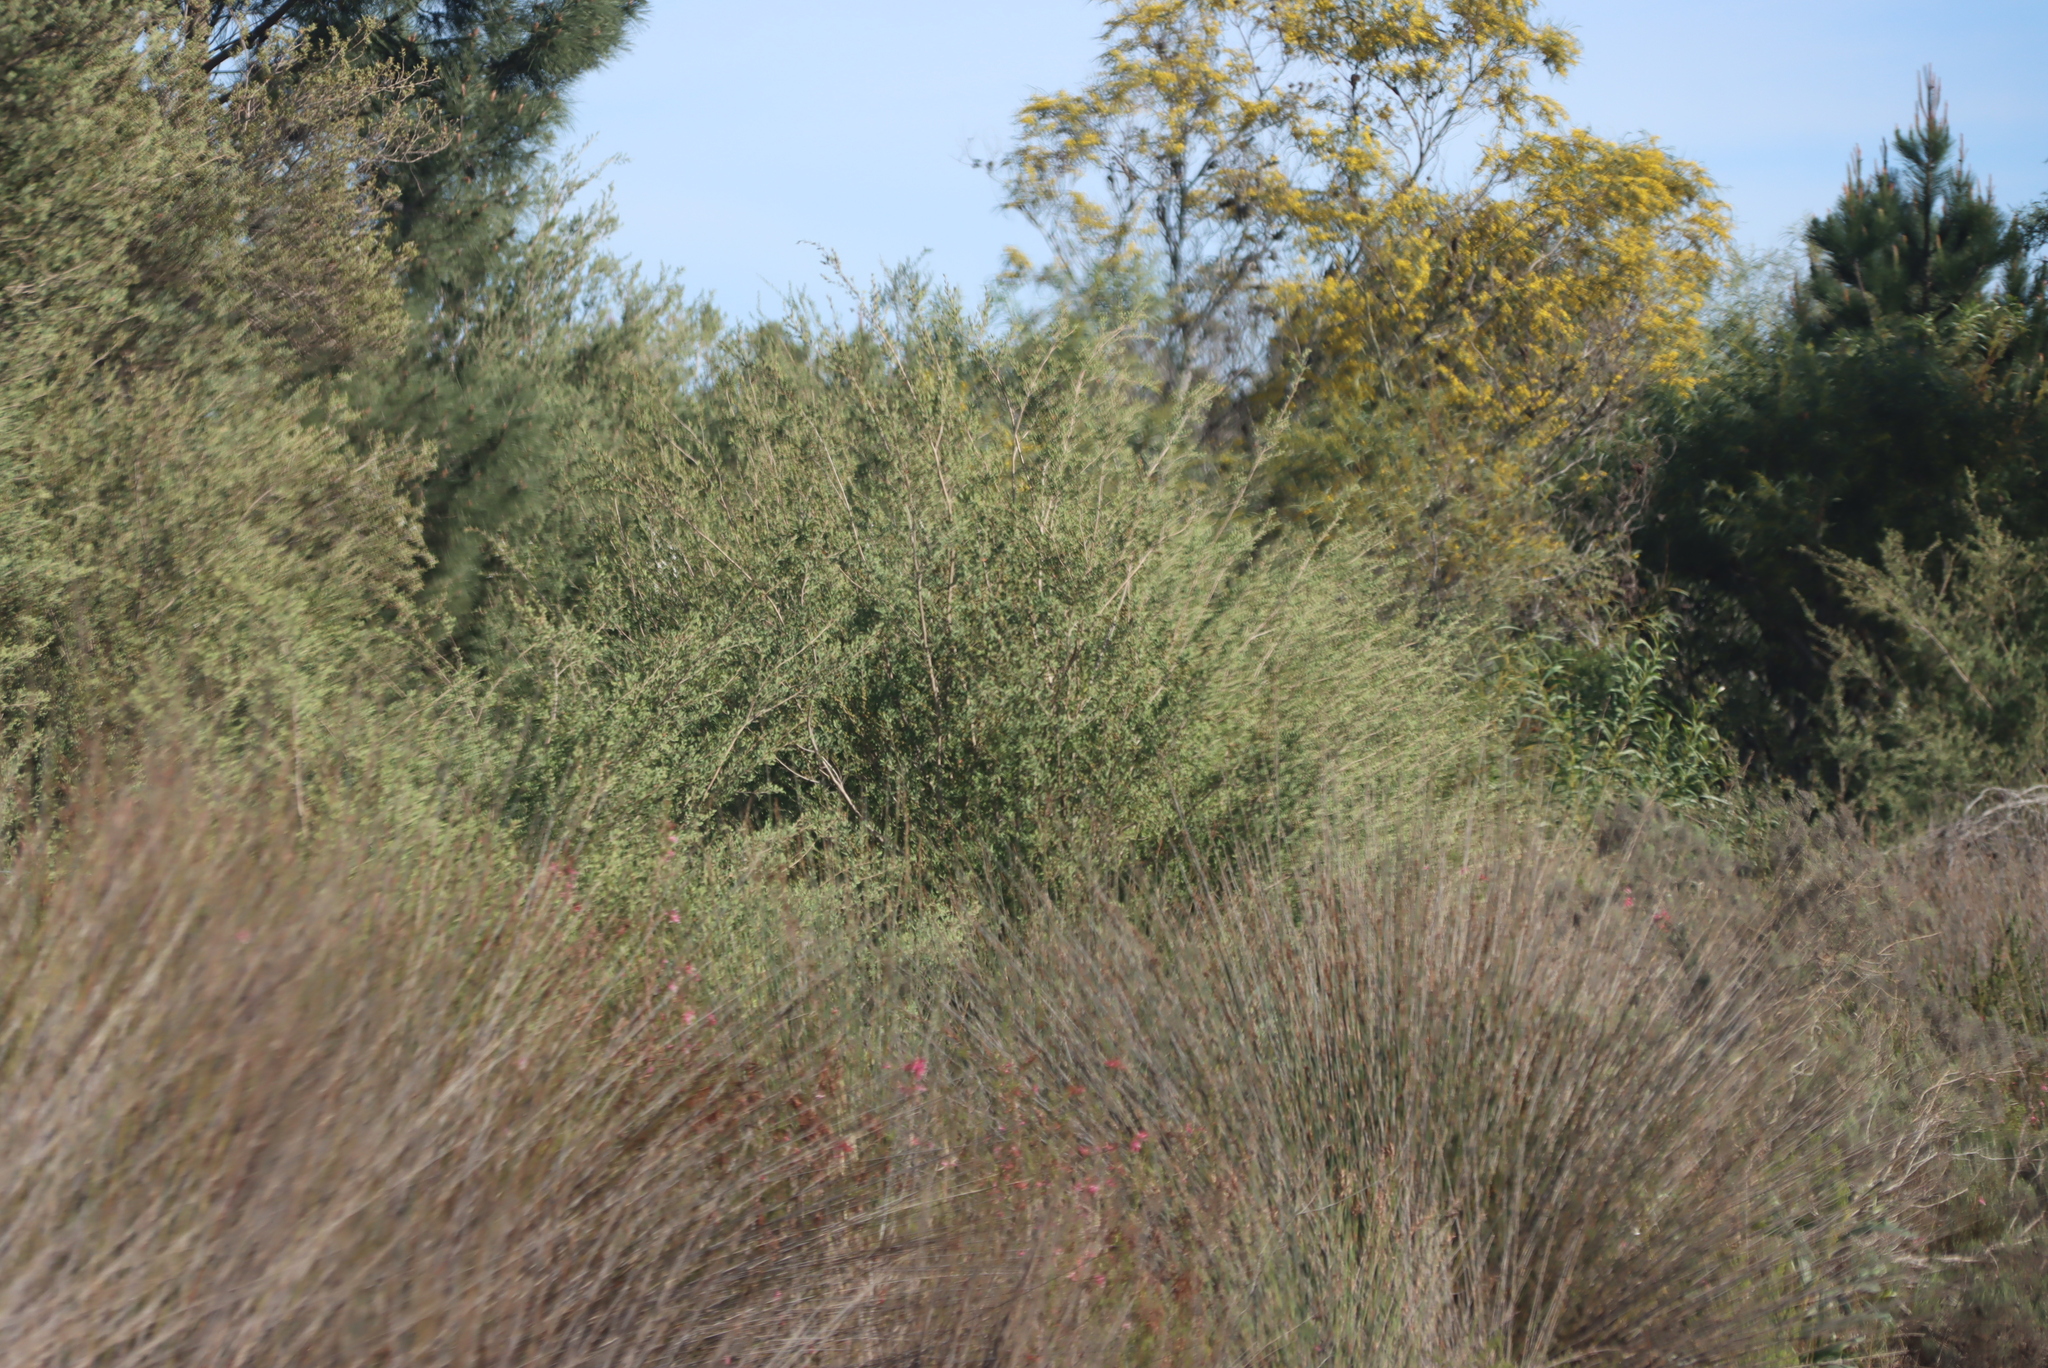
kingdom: Plantae
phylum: Tracheophyta
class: Magnoliopsida
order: Myrtales
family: Myrtaceae
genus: Leptospermum
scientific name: Leptospermum laevigatum
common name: Australian teatree
